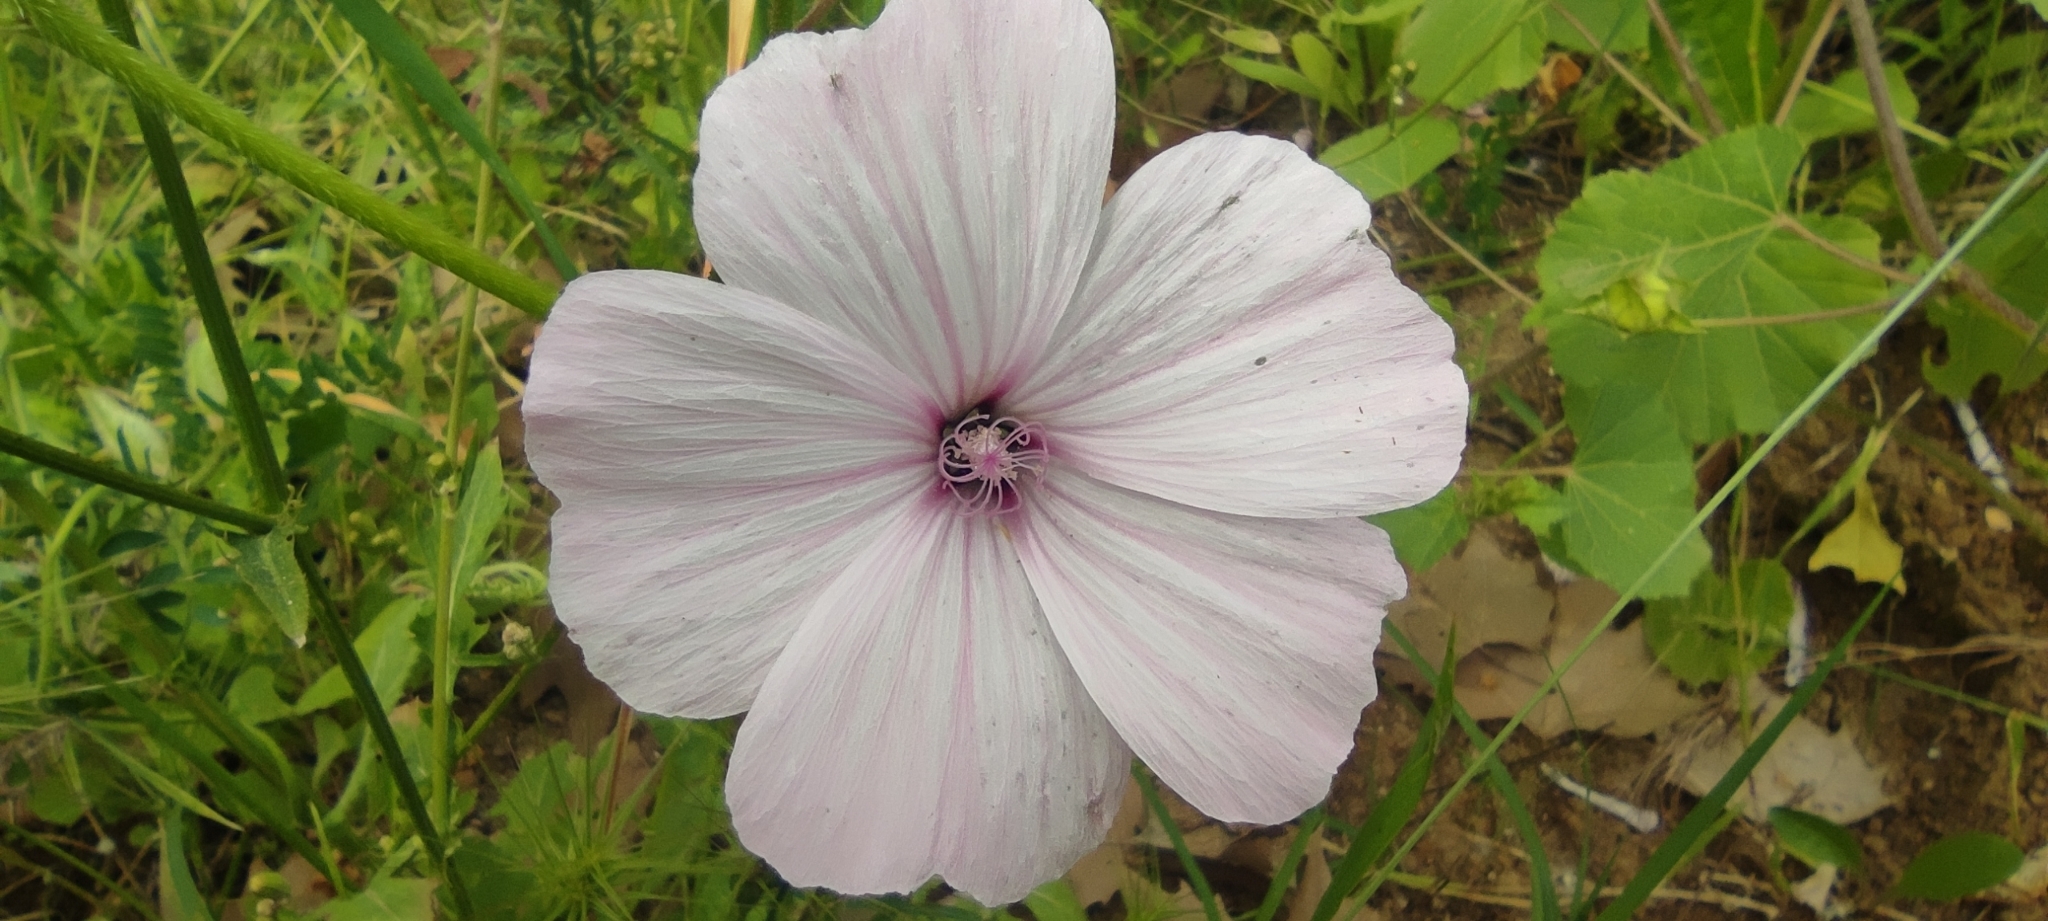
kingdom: Plantae
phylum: Tracheophyta
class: Magnoliopsida
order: Malvales
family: Malvaceae
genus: Malva
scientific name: Malva trimestris
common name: Royal mallow
